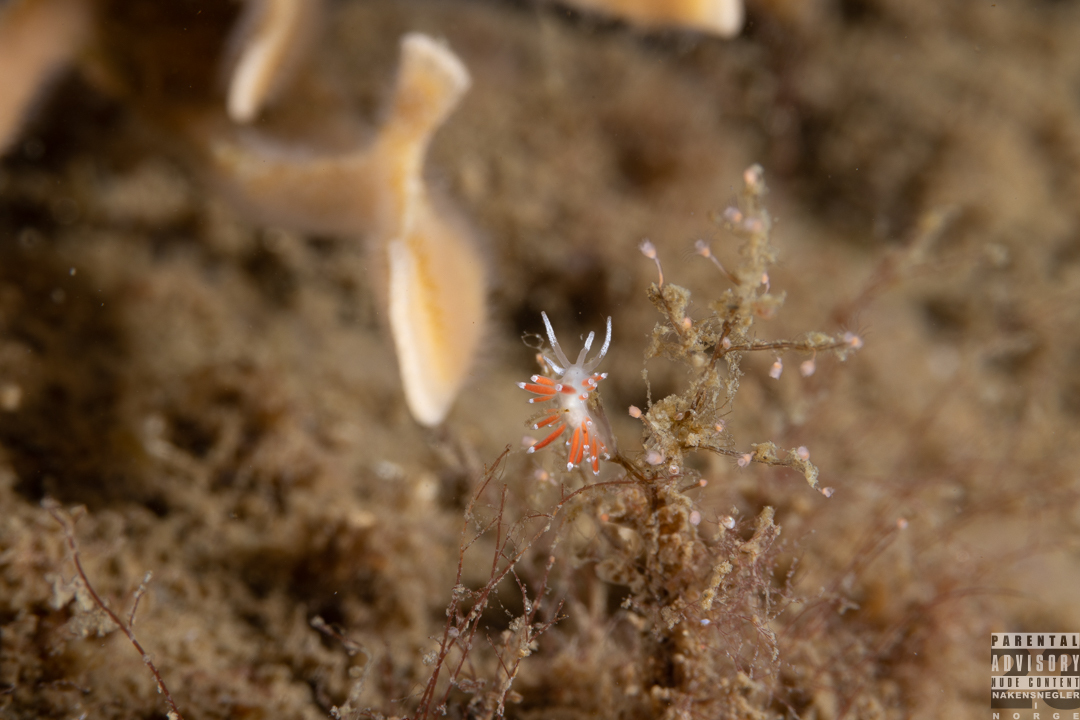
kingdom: Animalia
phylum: Mollusca
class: Gastropoda
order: Nudibranchia
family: Coryphellidae
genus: Coryphella
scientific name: Coryphella gracilis
